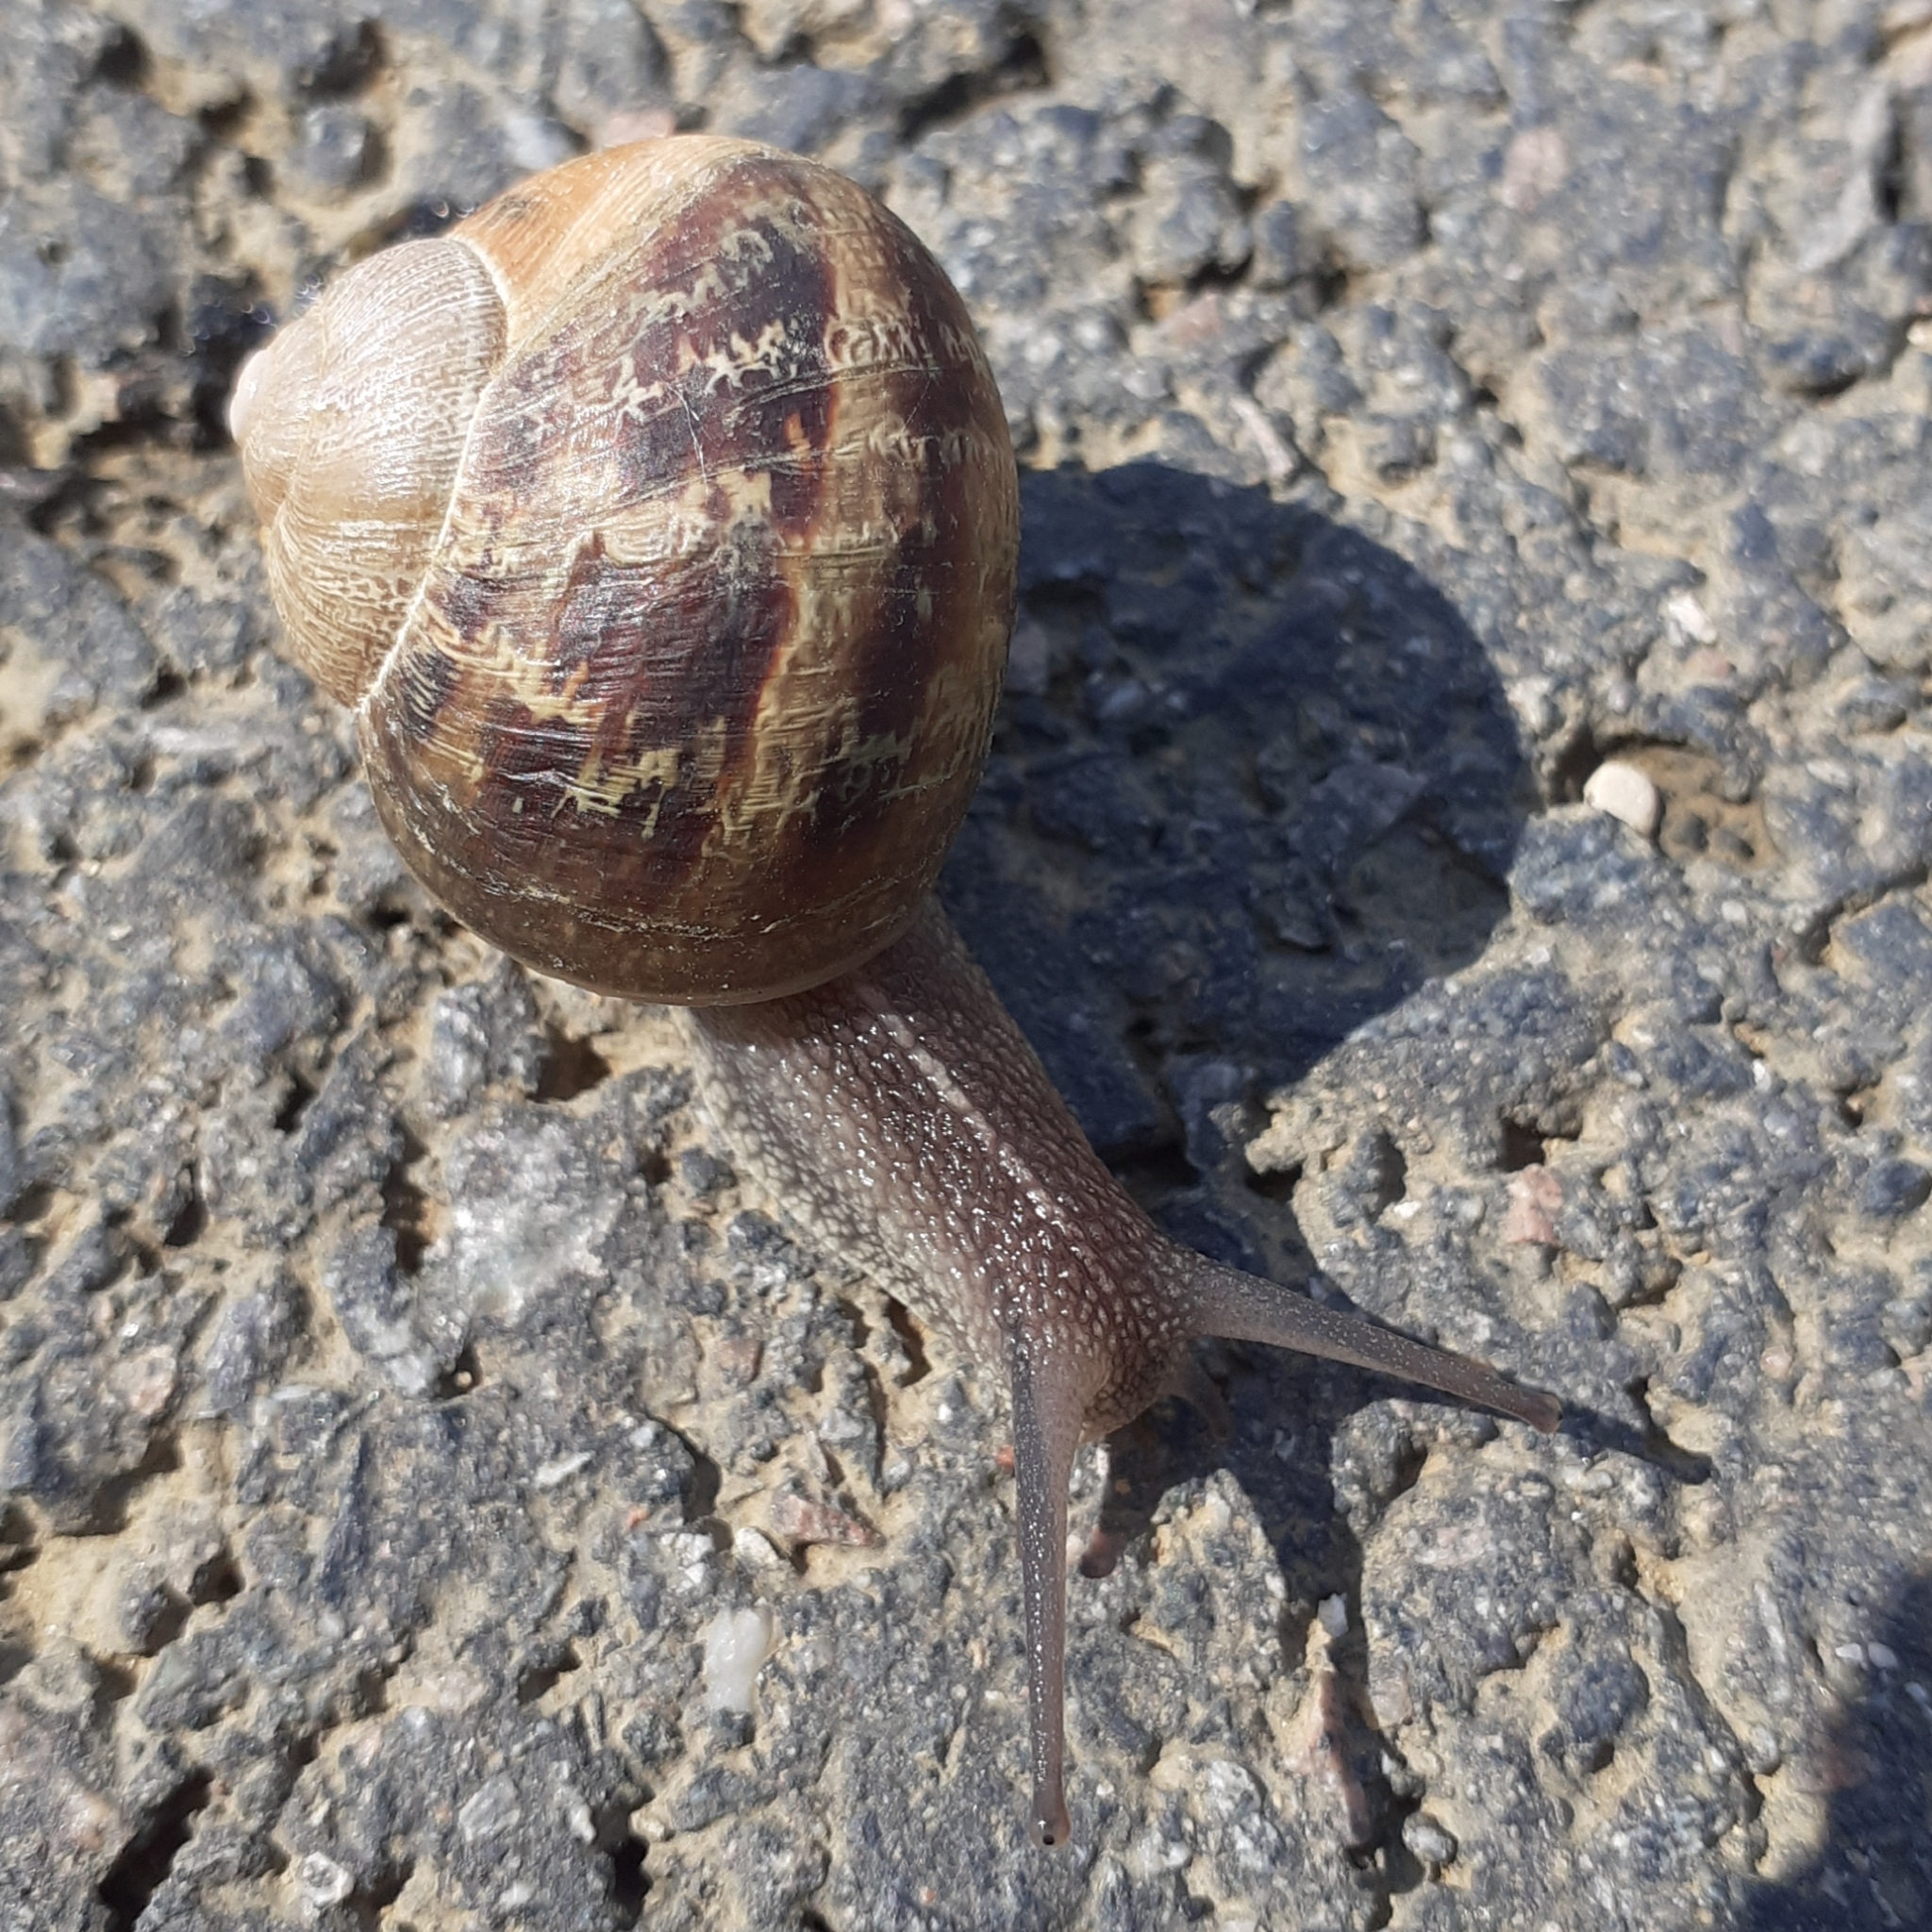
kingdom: Animalia
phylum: Mollusca
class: Gastropoda
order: Stylommatophora
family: Helicidae
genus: Cornu
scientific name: Cornu aspersum
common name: Brown garden snail
